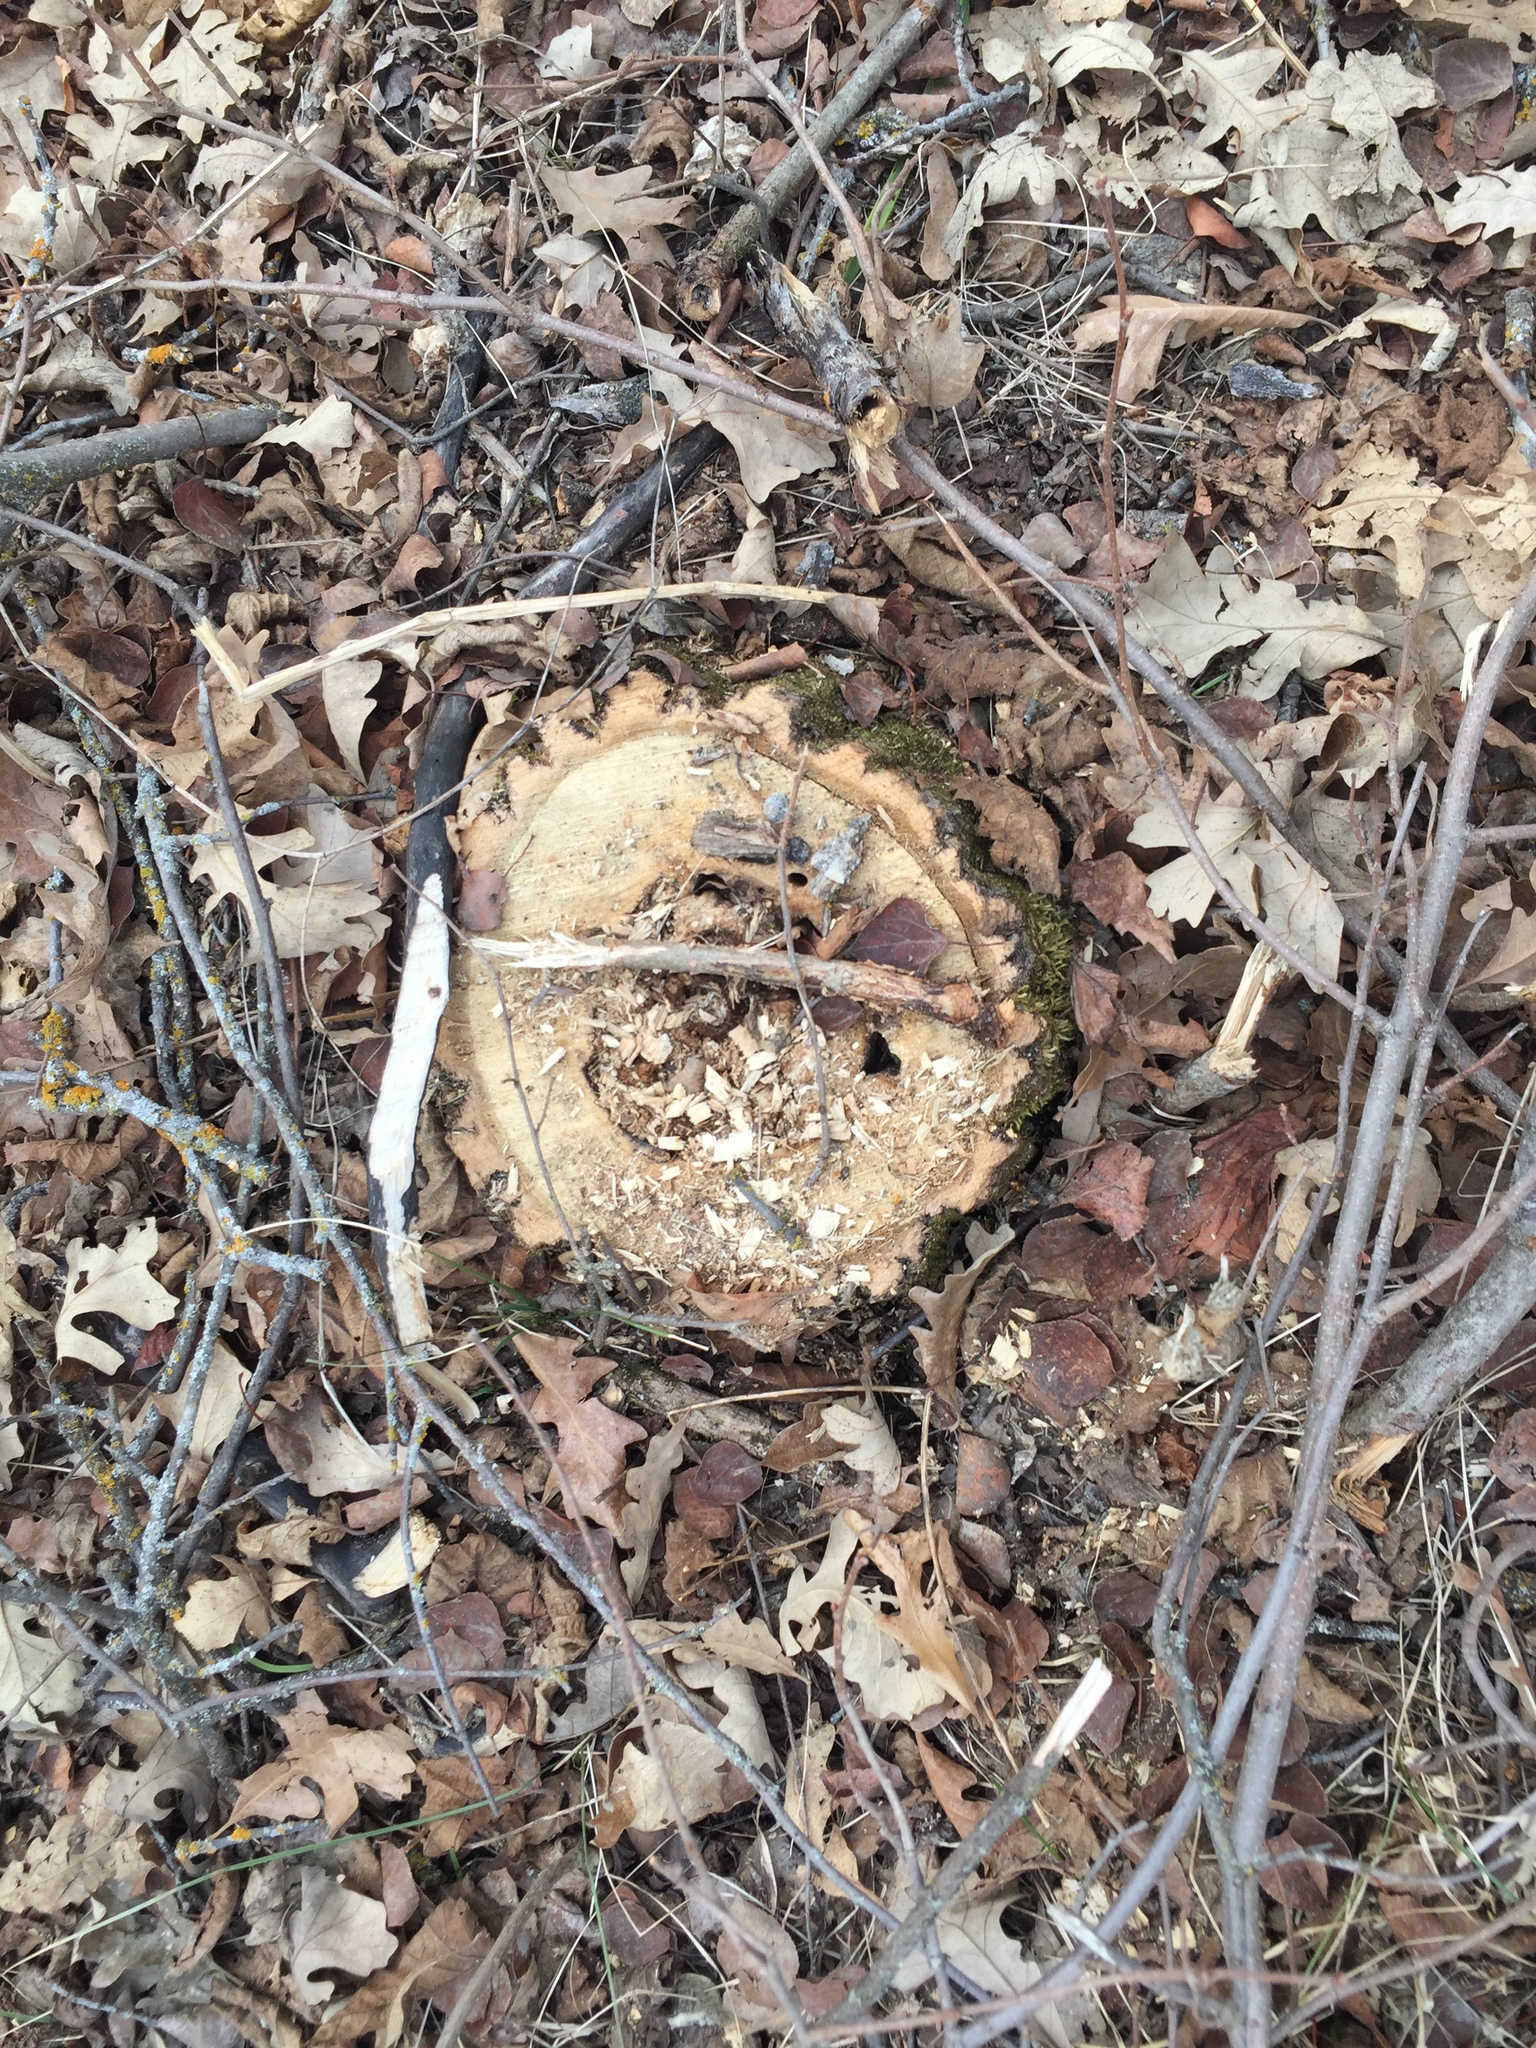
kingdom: Plantae
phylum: Tracheophyta
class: Magnoliopsida
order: Fagales
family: Fagaceae
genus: Quercus
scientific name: Quercus macrocarpa
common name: Bur oak
